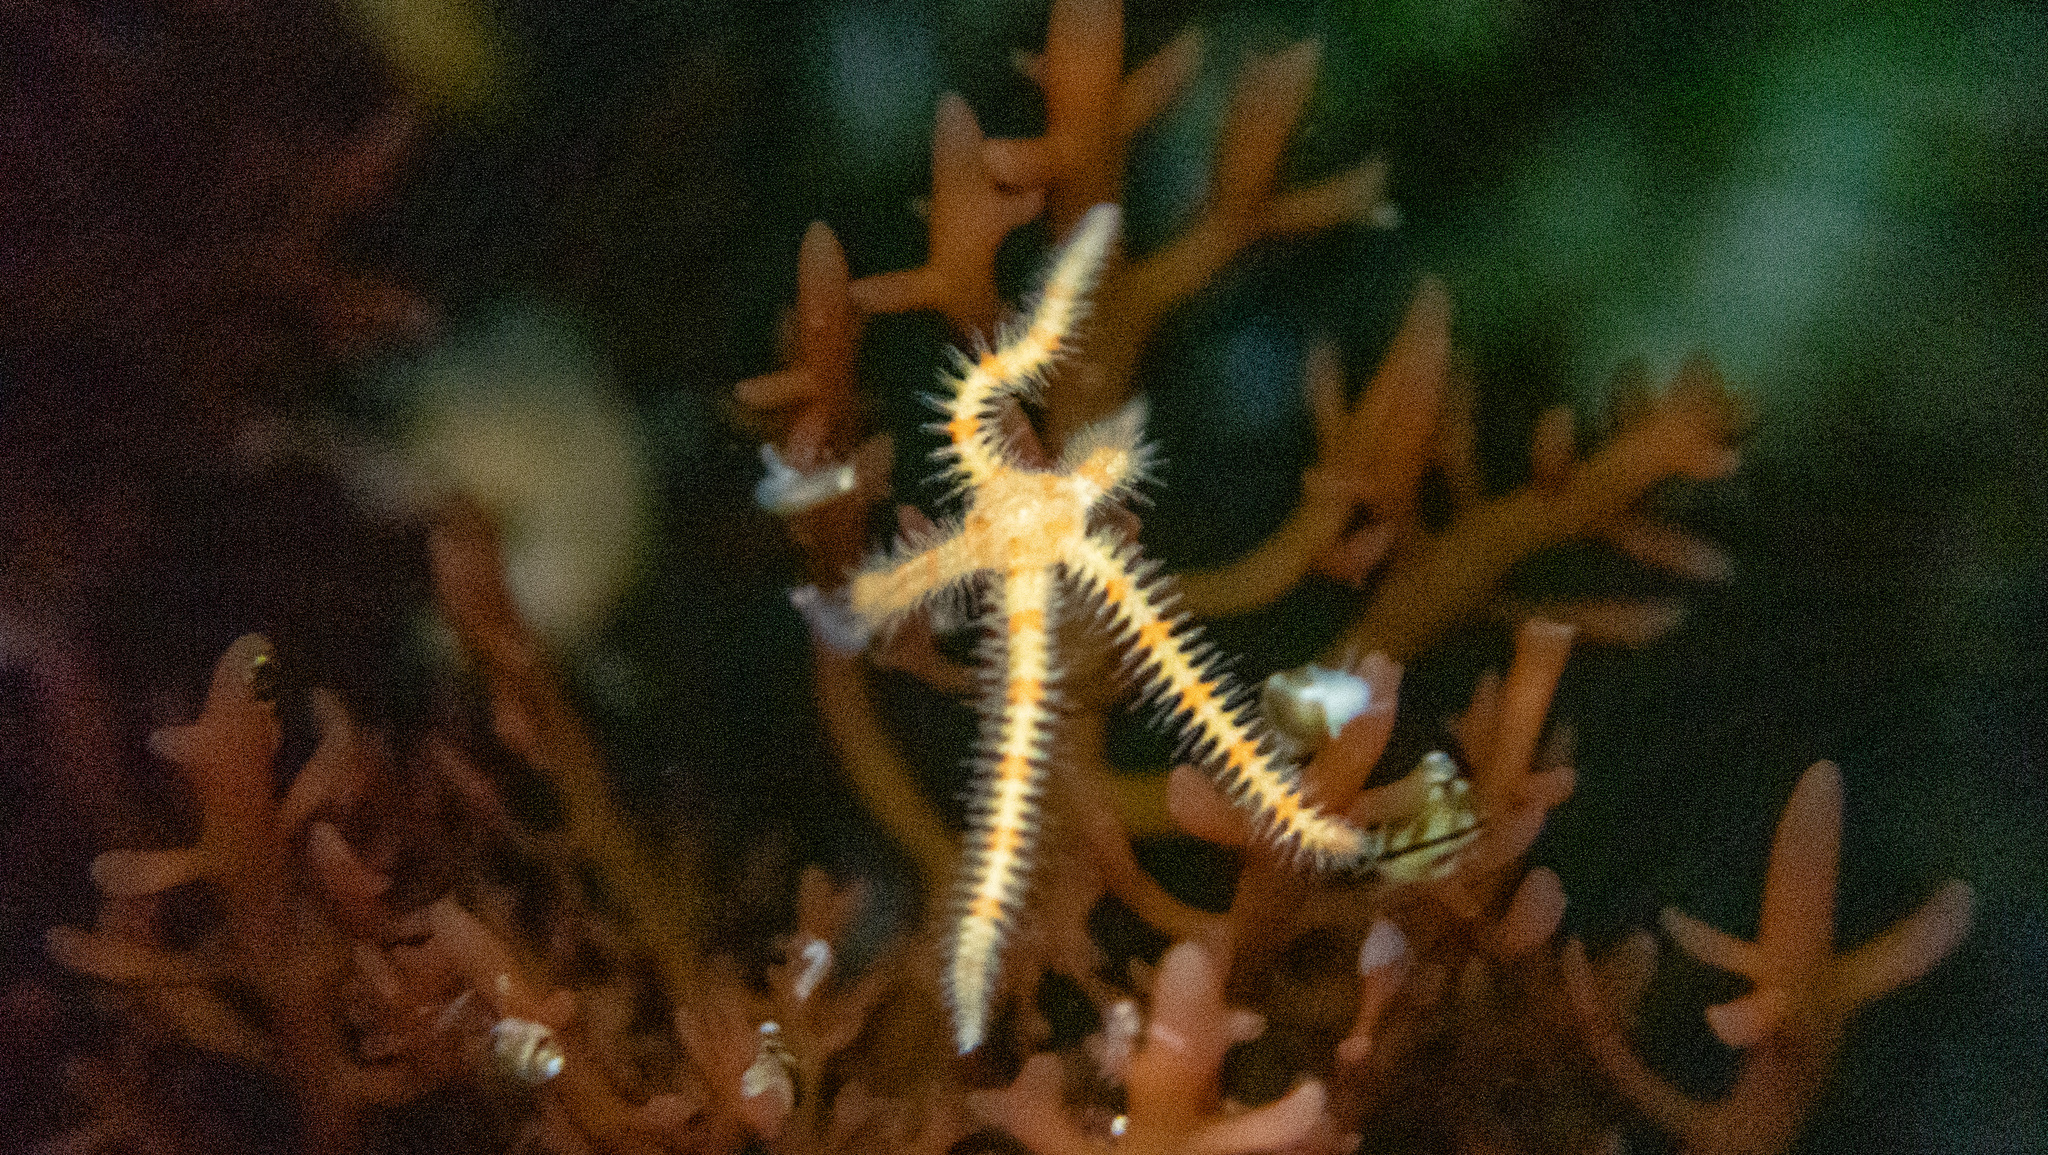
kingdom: Animalia
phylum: Echinodermata
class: Ophiuroidea
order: Amphilepidida
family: Ophiotrichidae
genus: Ophiothrix
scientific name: Ophiothrix spiculata
